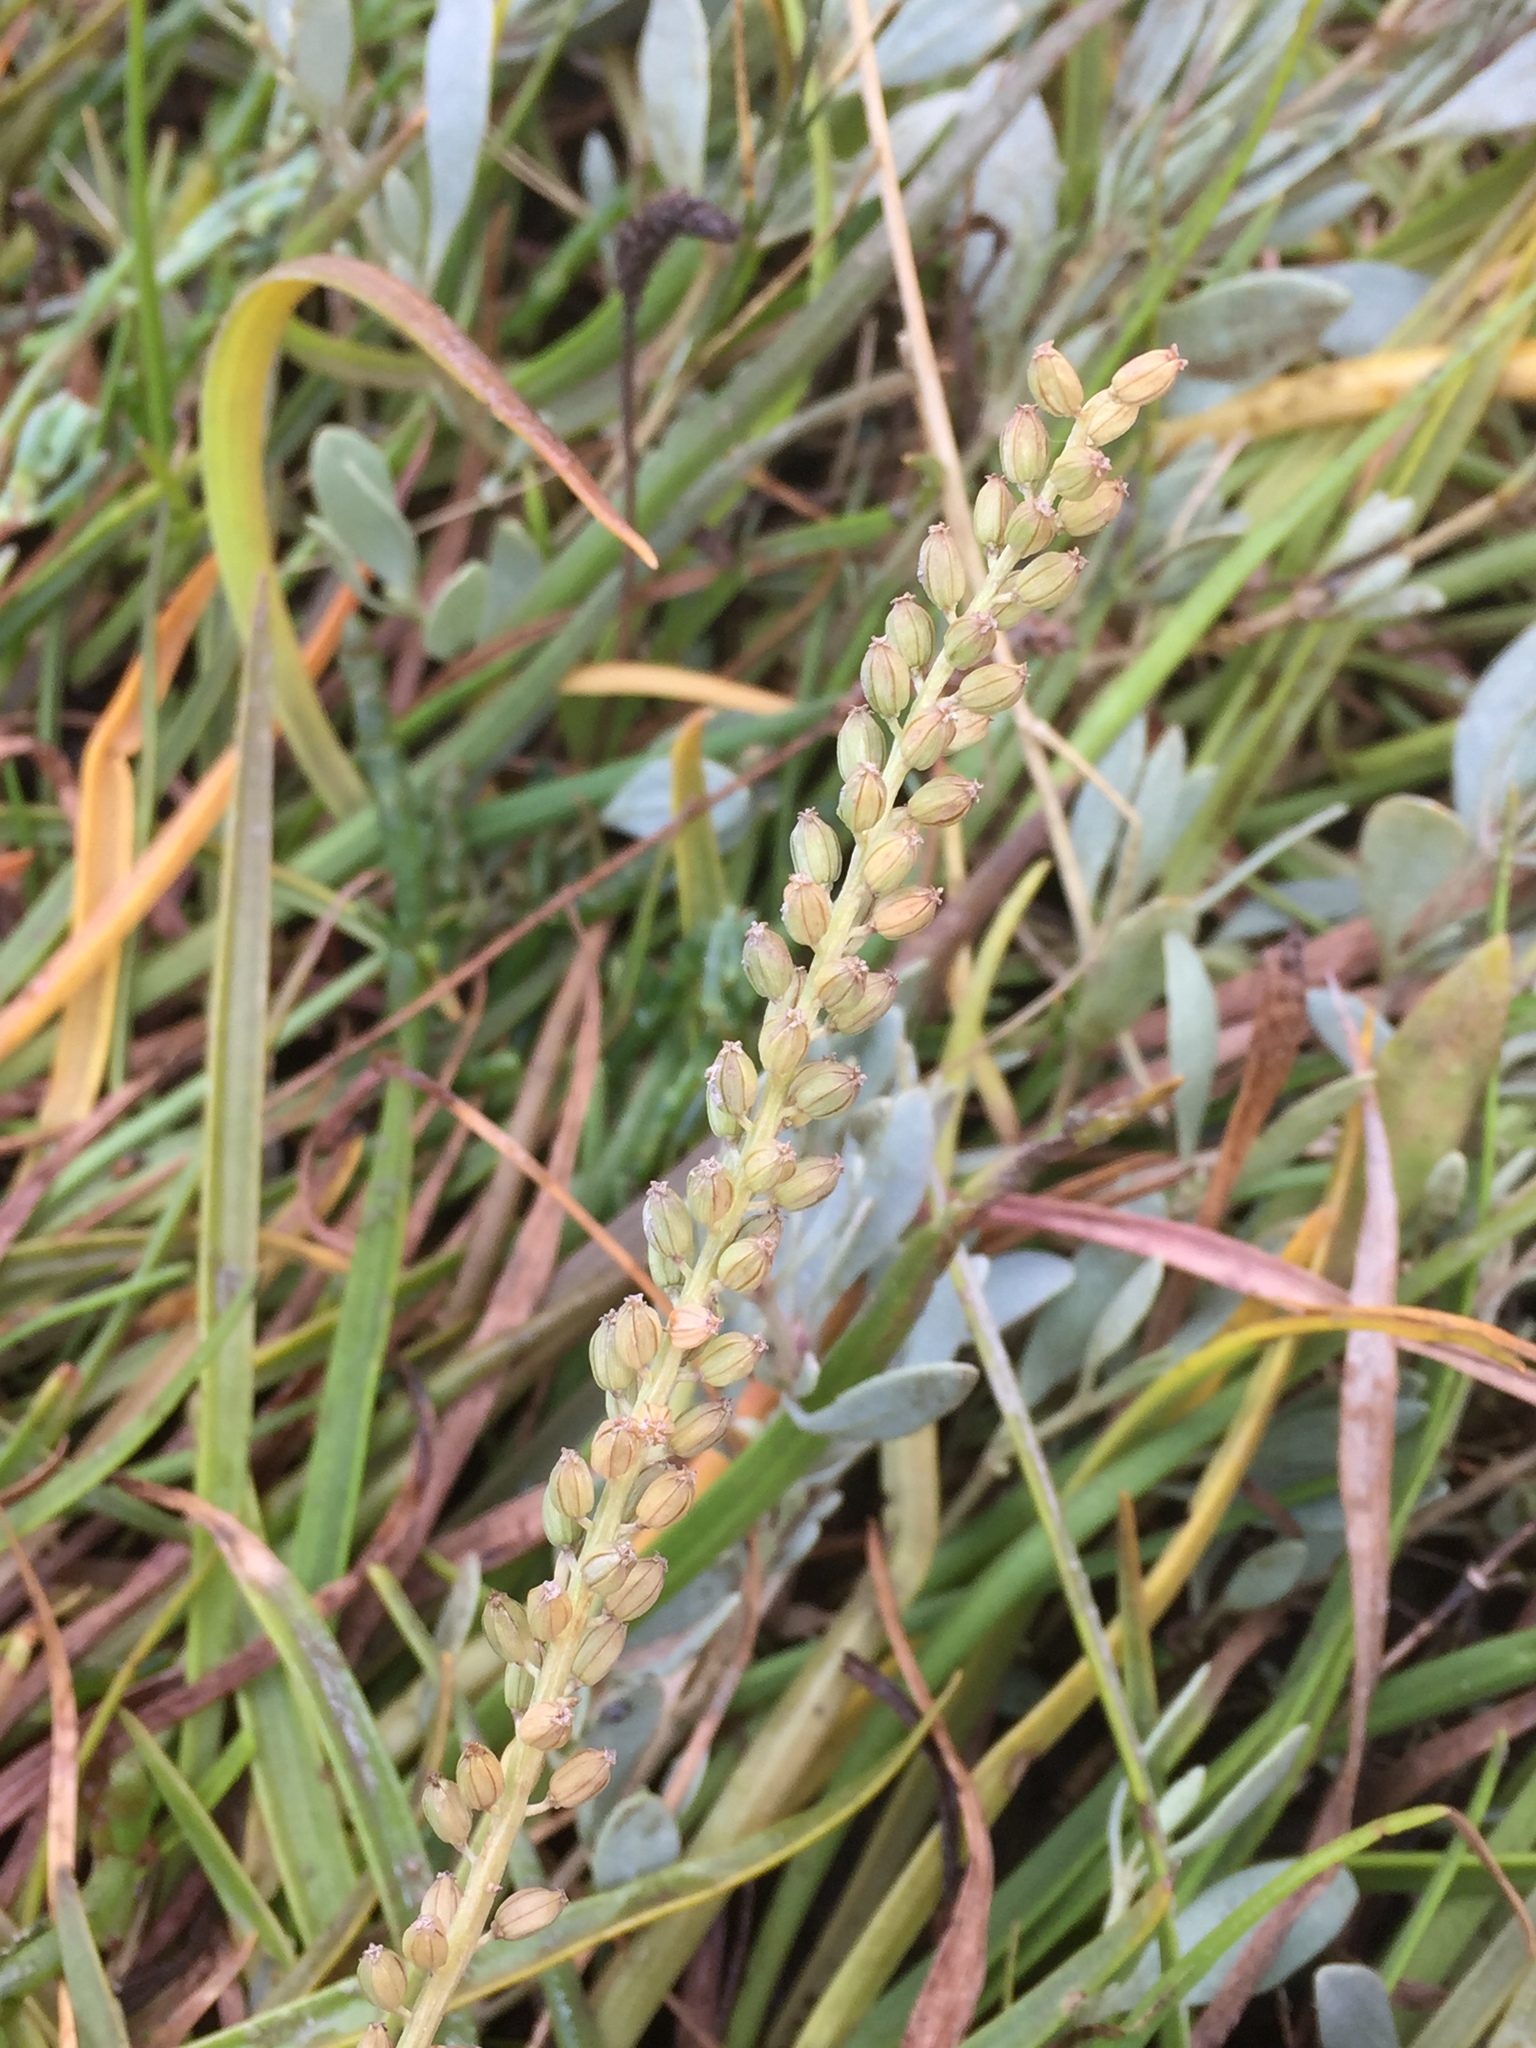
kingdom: Plantae
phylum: Tracheophyta
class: Liliopsida
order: Alismatales
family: Juncaginaceae
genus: Triglochin
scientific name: Triglochin maritima
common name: Sea arrowgrass
